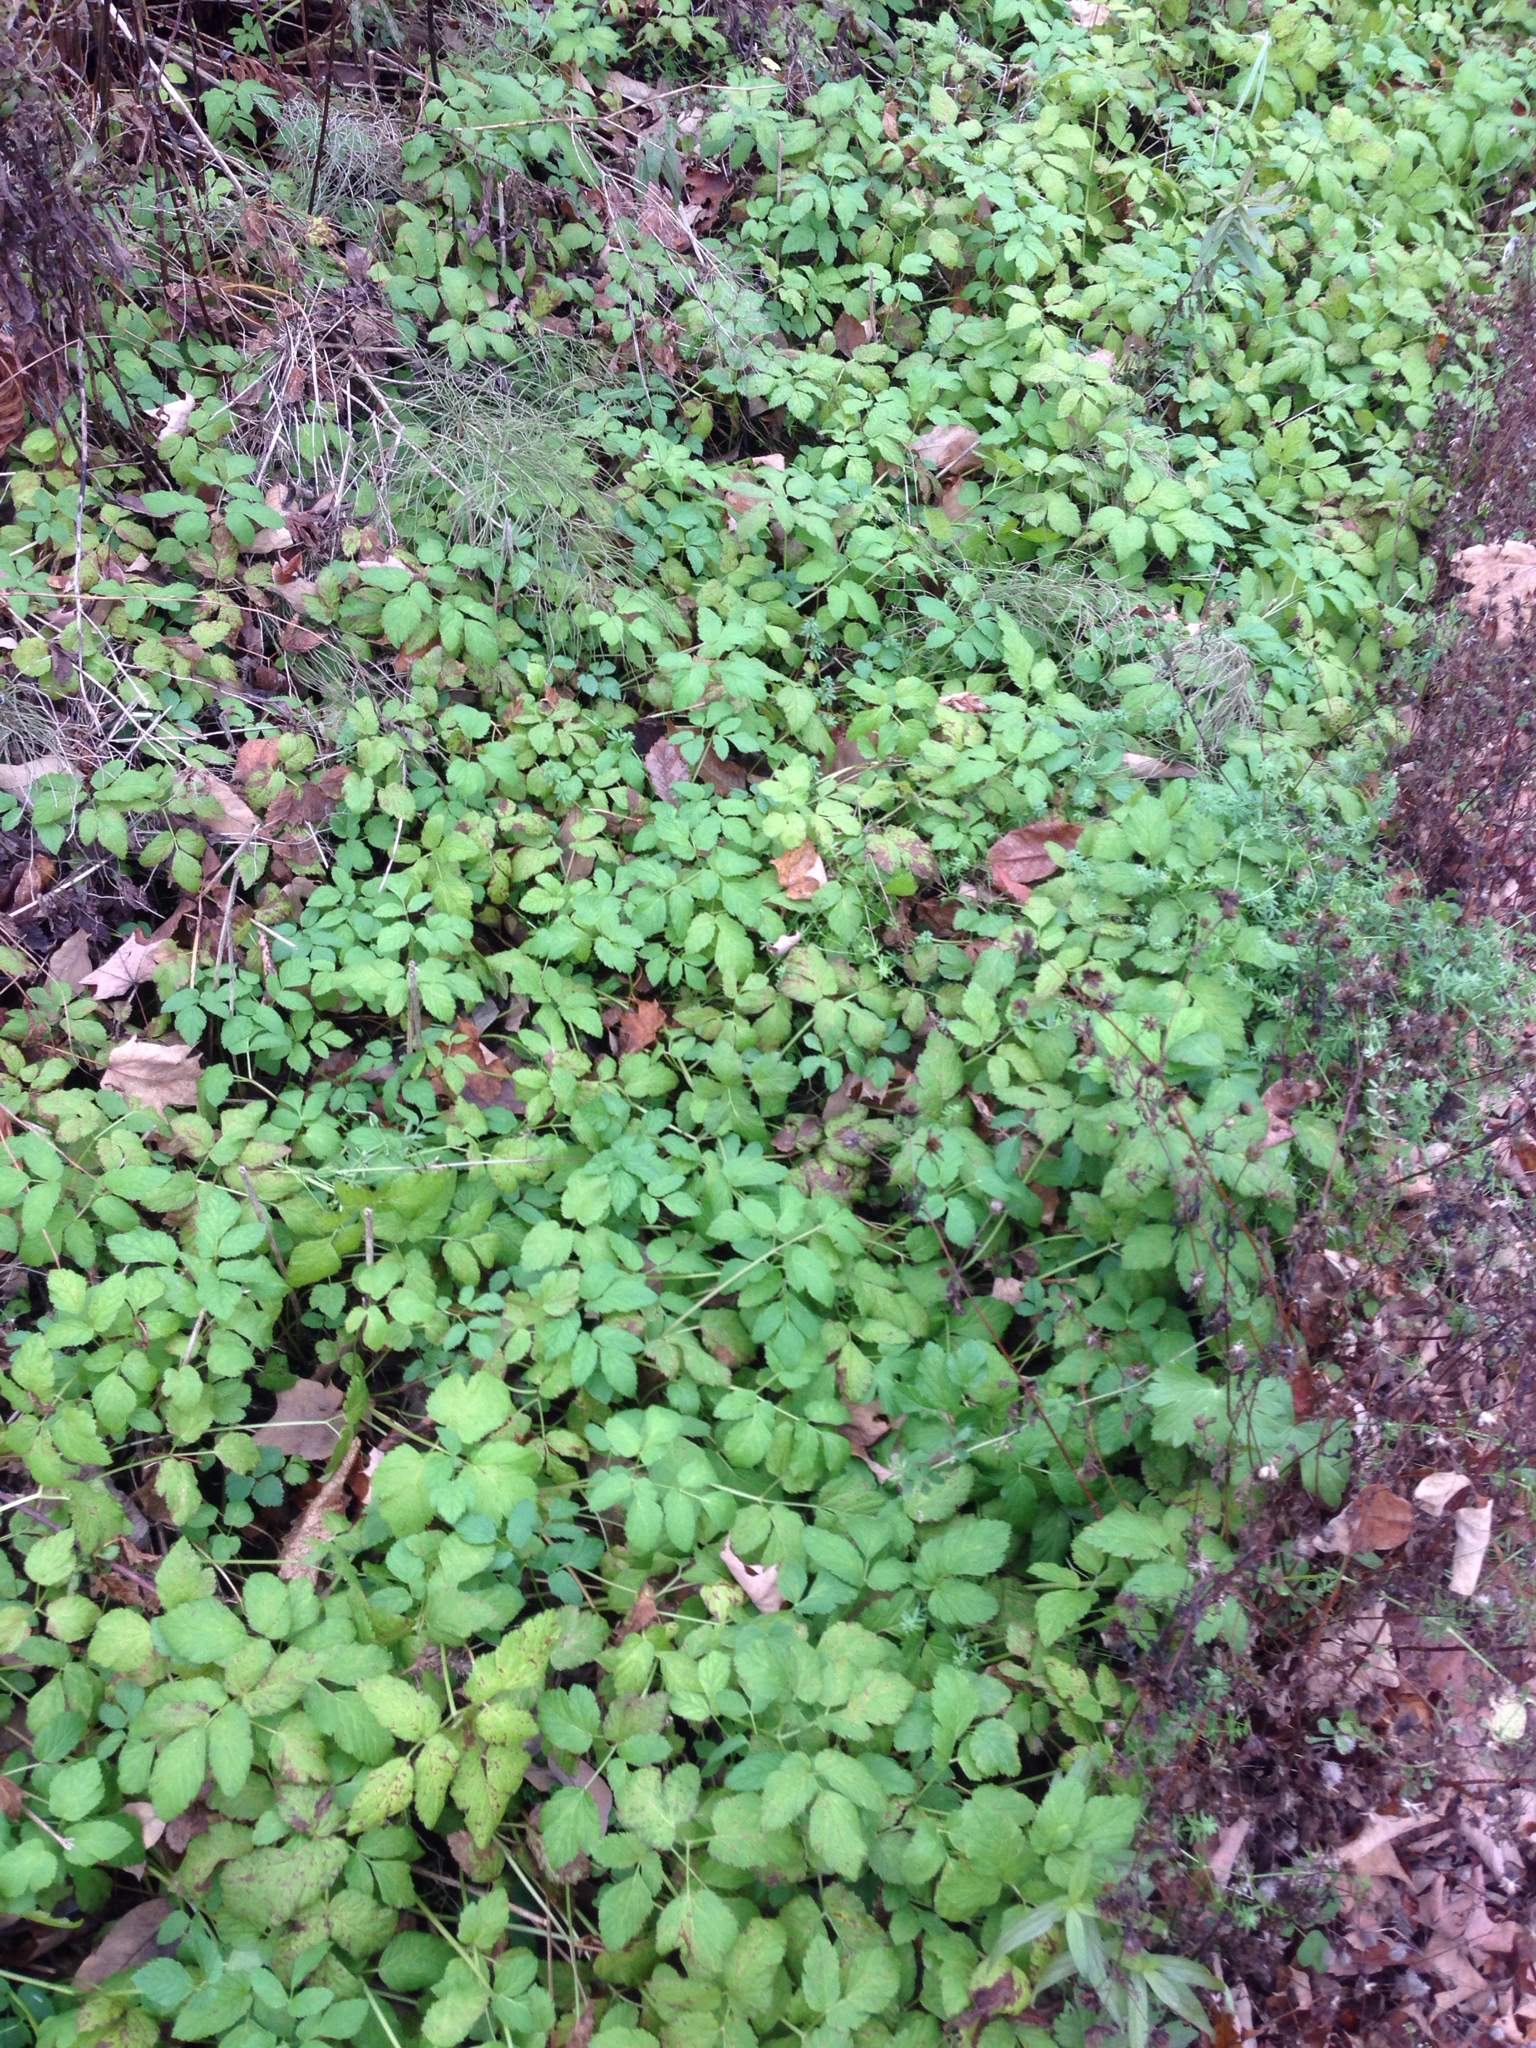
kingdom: Plantae
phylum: Tracheophyta
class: Magnoliopsida
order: Apiales
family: Apiaceae
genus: Aegopodium
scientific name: Aegopodium podagraria
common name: Ground-elder
